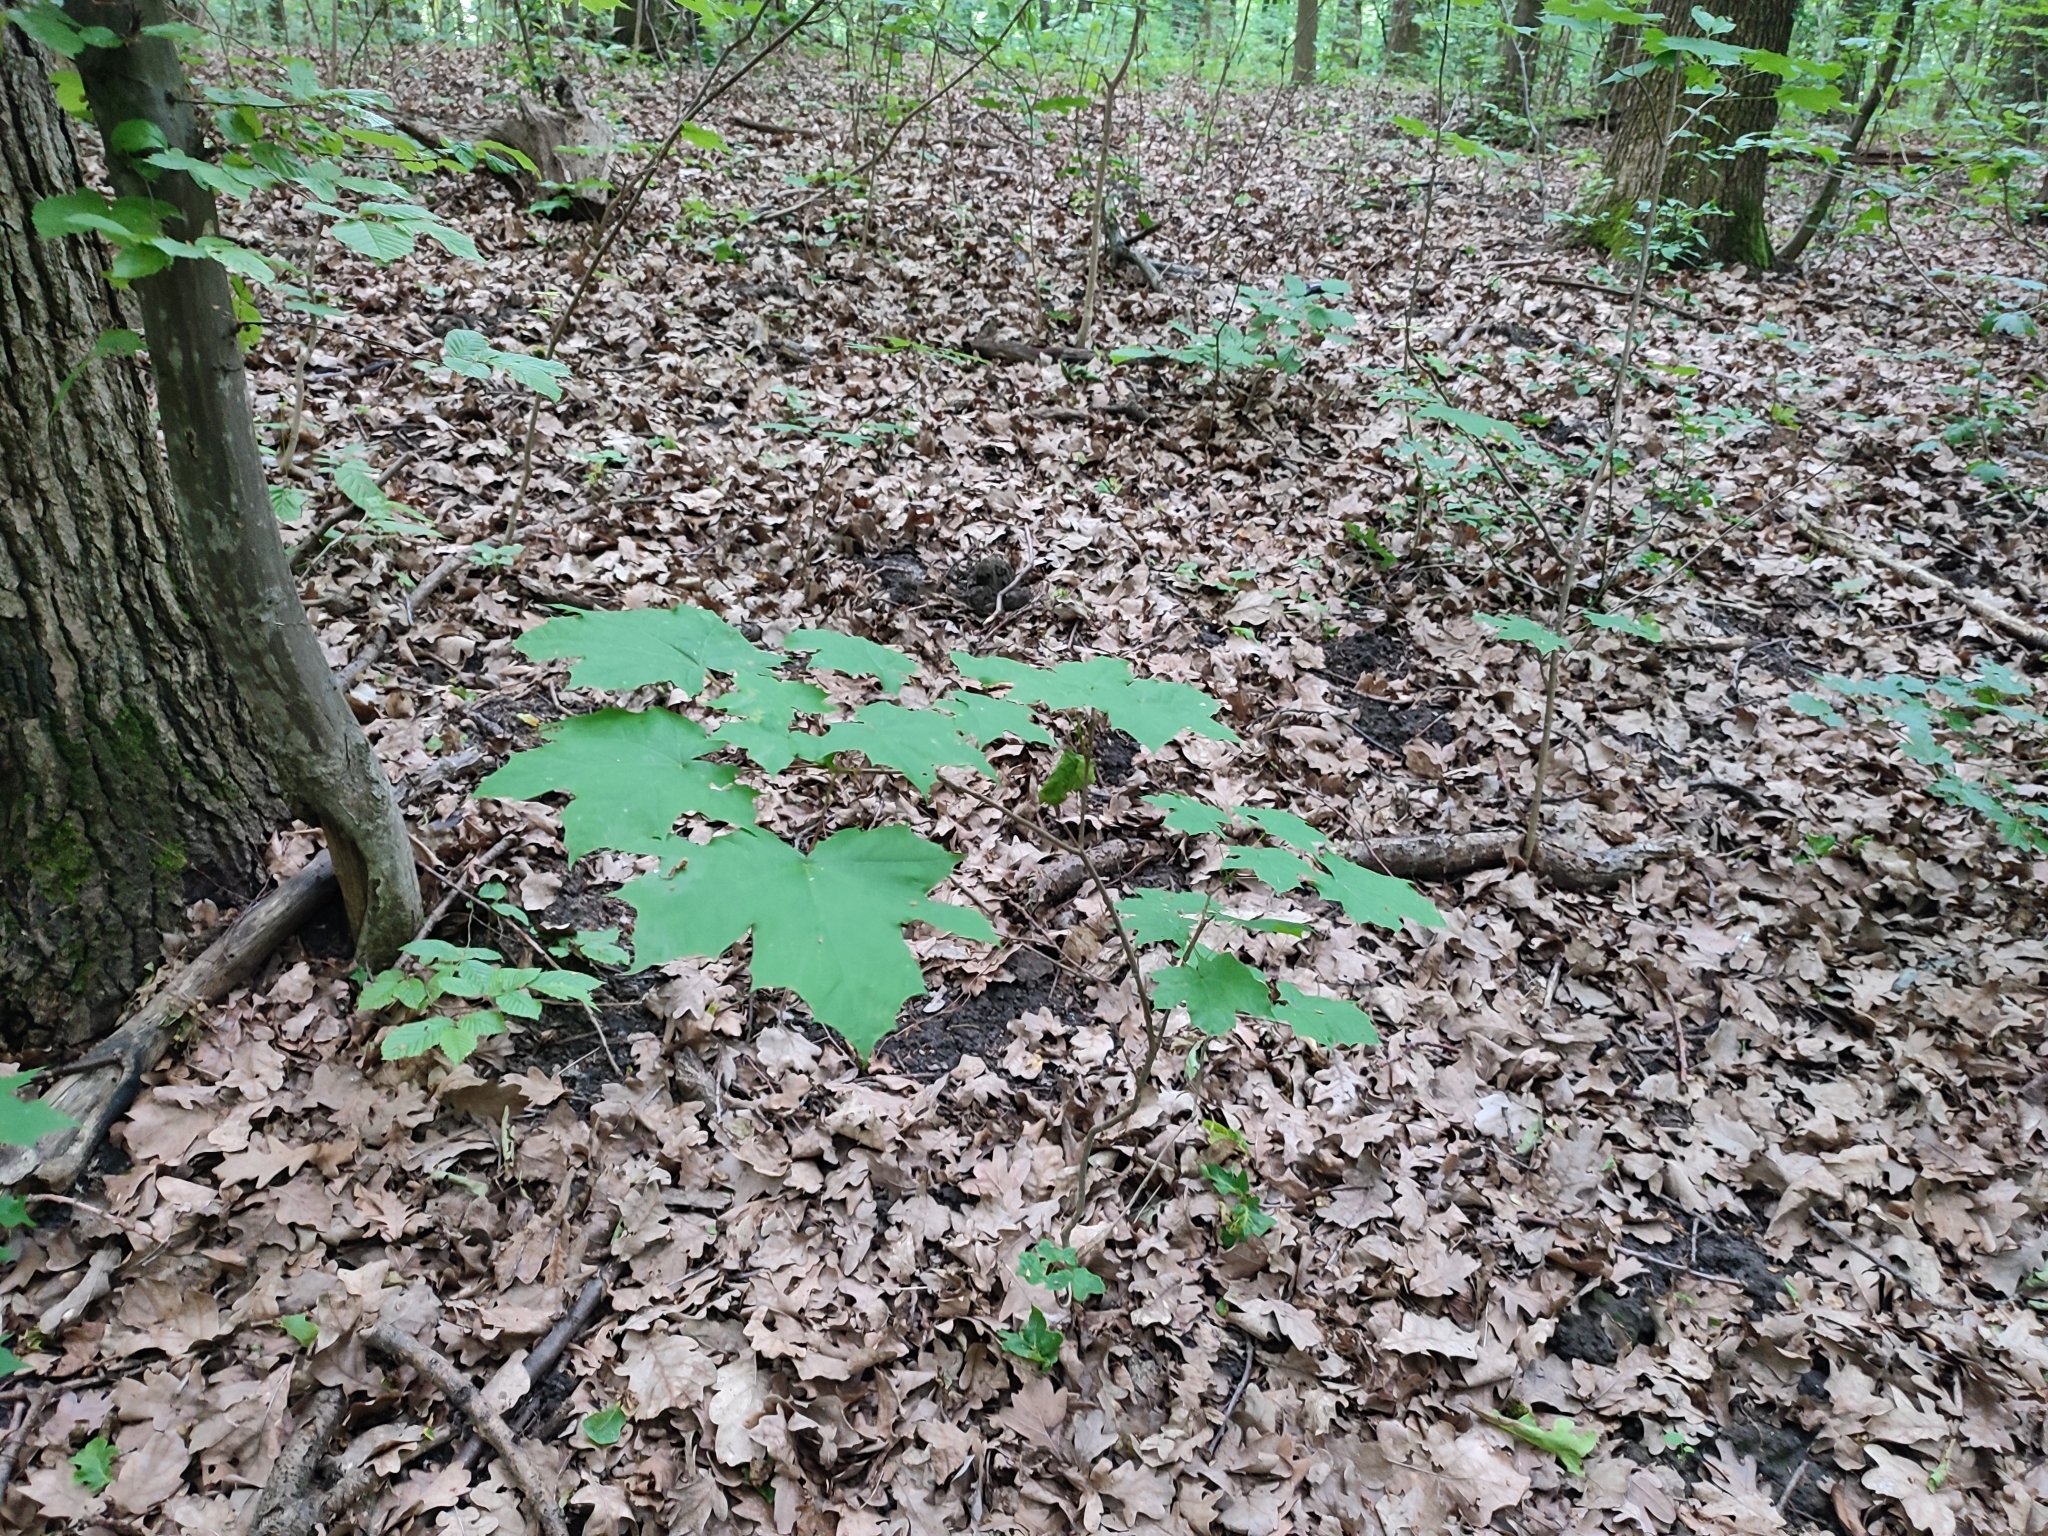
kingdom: Plantae
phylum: Tracheophyta
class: Magnoliopsida
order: Sapindales
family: Sapindaceae
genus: Acer
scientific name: Acer platanoides
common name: Norway maple
